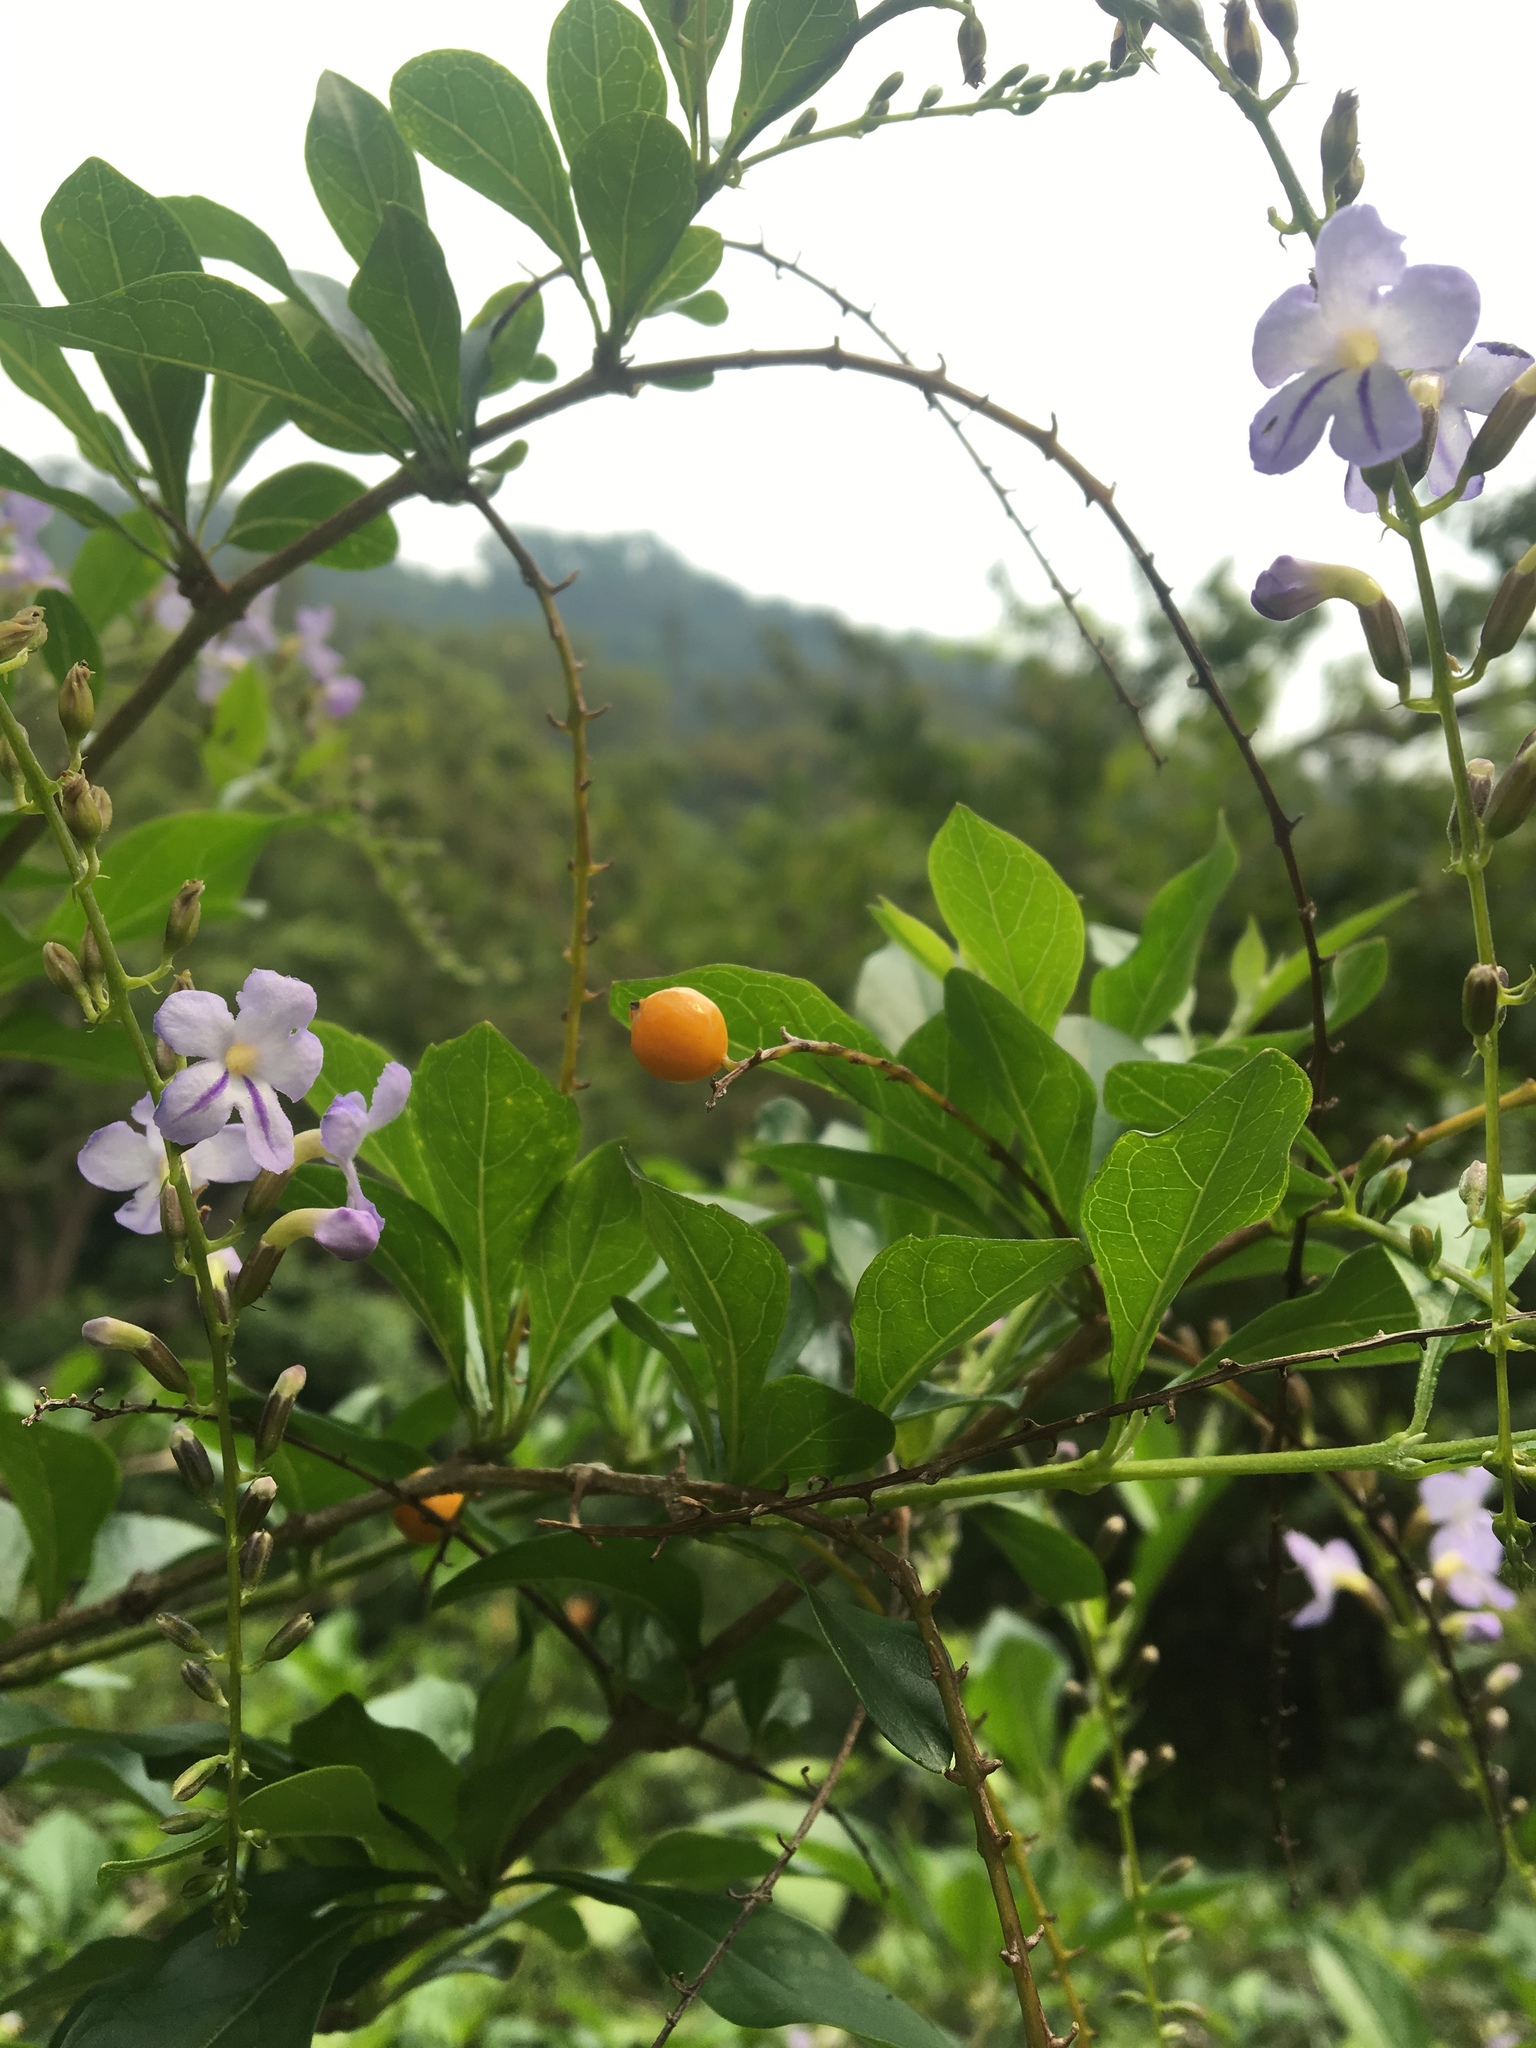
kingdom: Plantae
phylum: Tracheophyta
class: Magnoliopsida
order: Lamiales
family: Verbenaceae
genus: Duranta
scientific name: Duranta erecta
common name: Golden dewdrops
